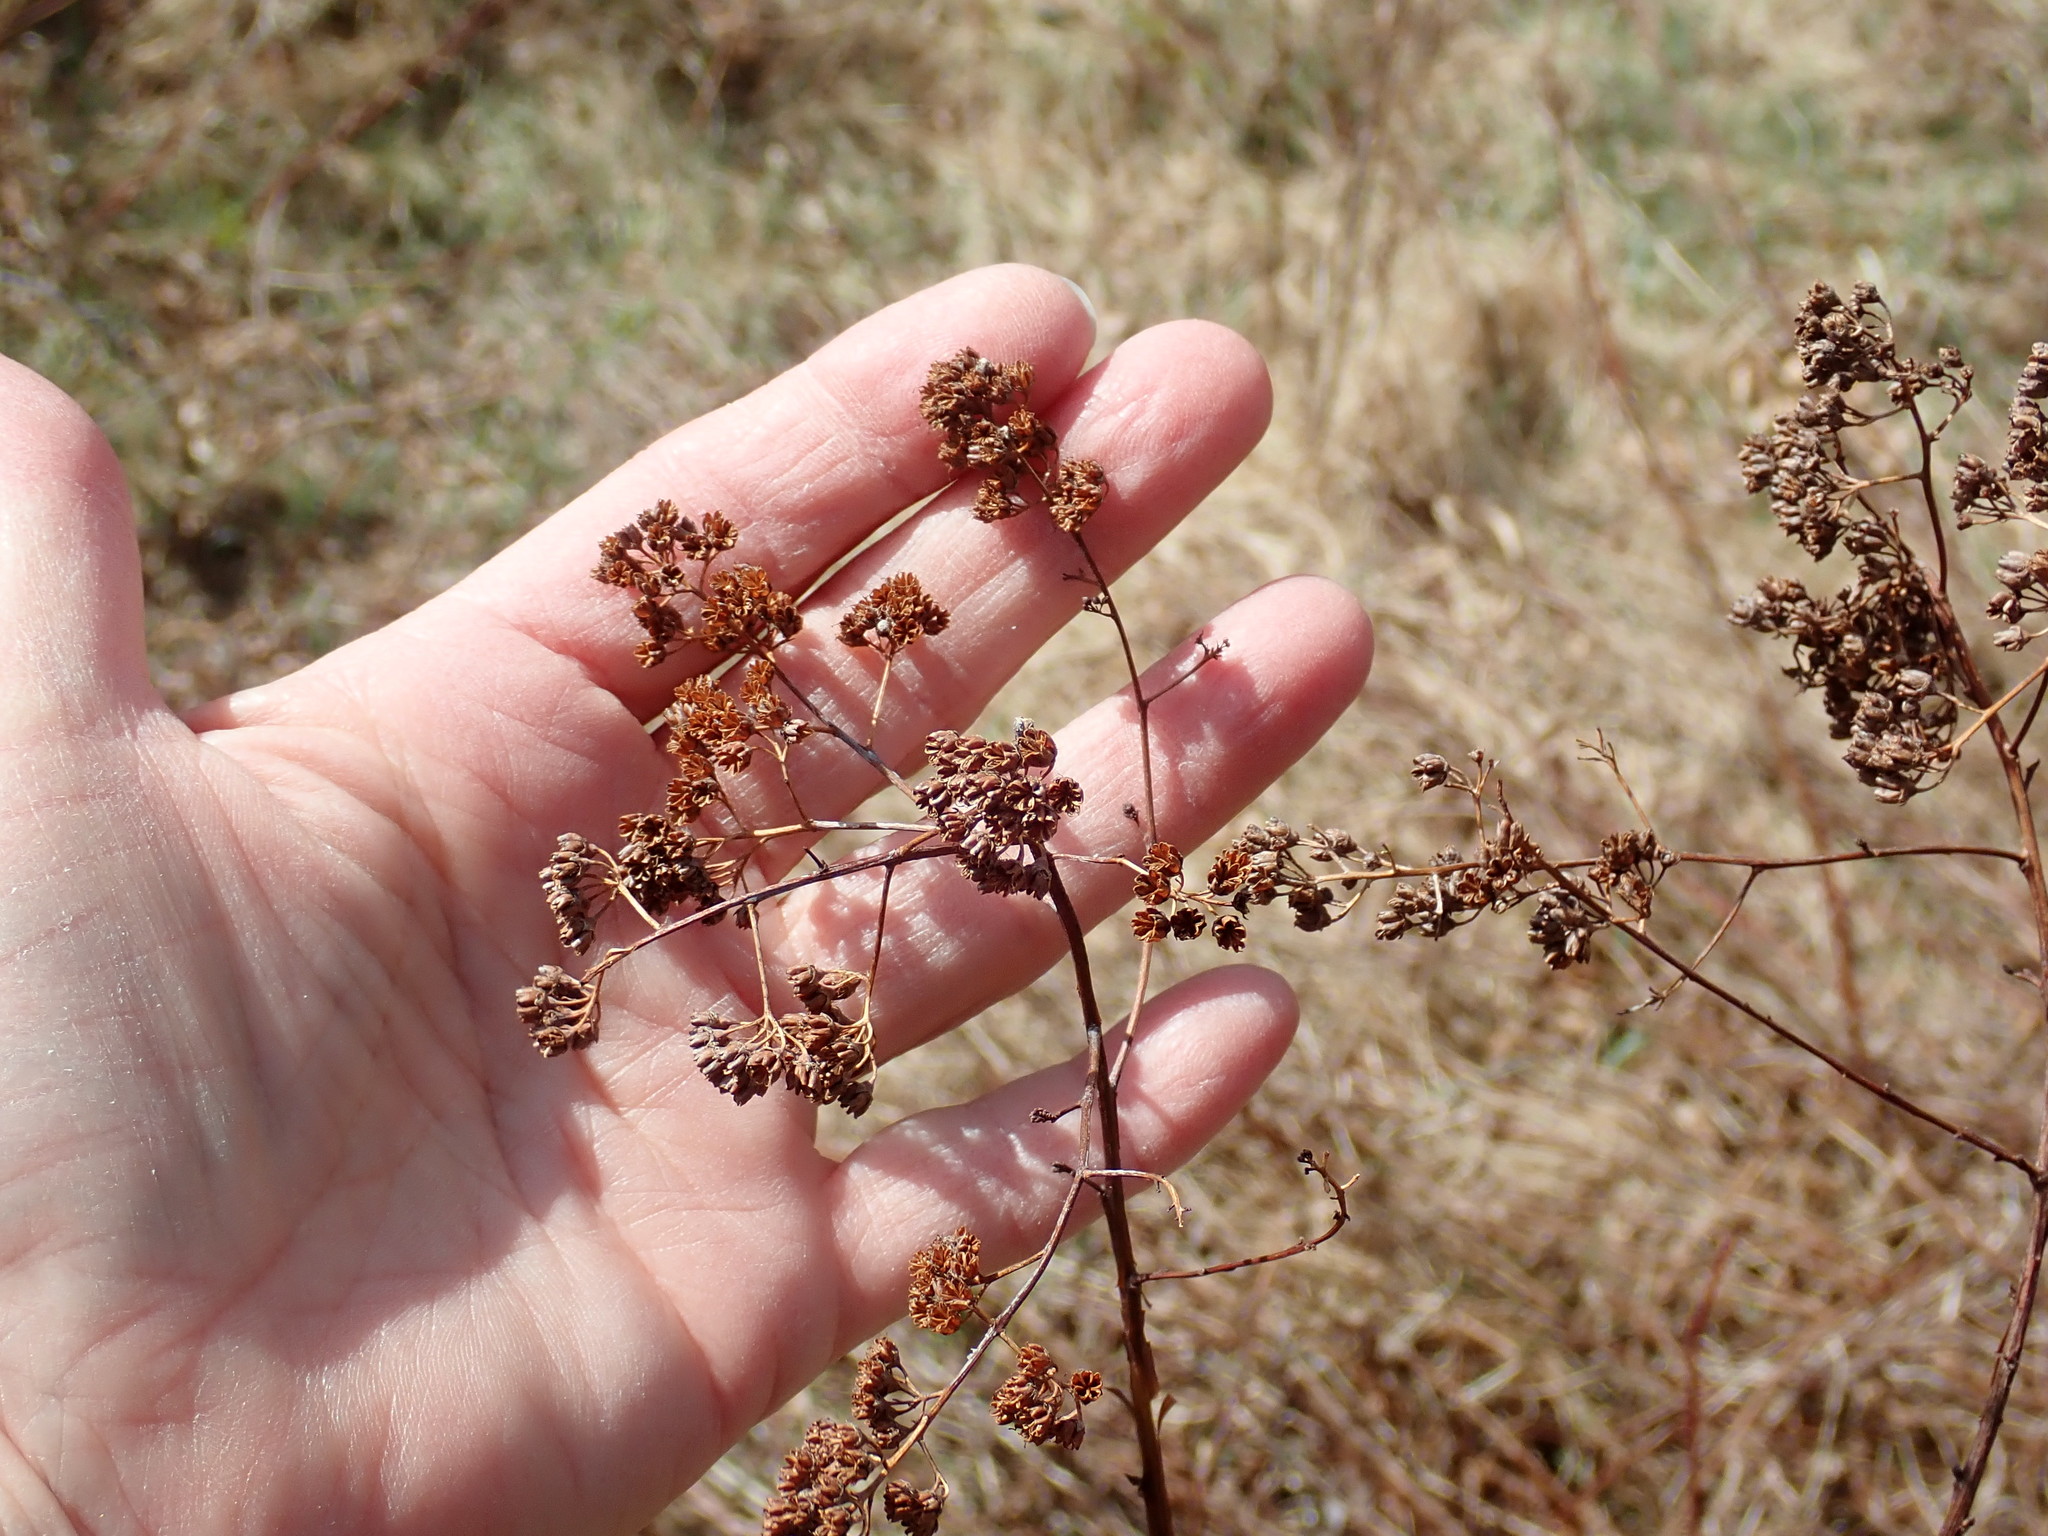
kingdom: Plantae
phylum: Tracheophyta
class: Magnoliopsida
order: Rosales
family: Rosaceae
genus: Spiraea
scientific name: Spiraea alba
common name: Pale bridewort
